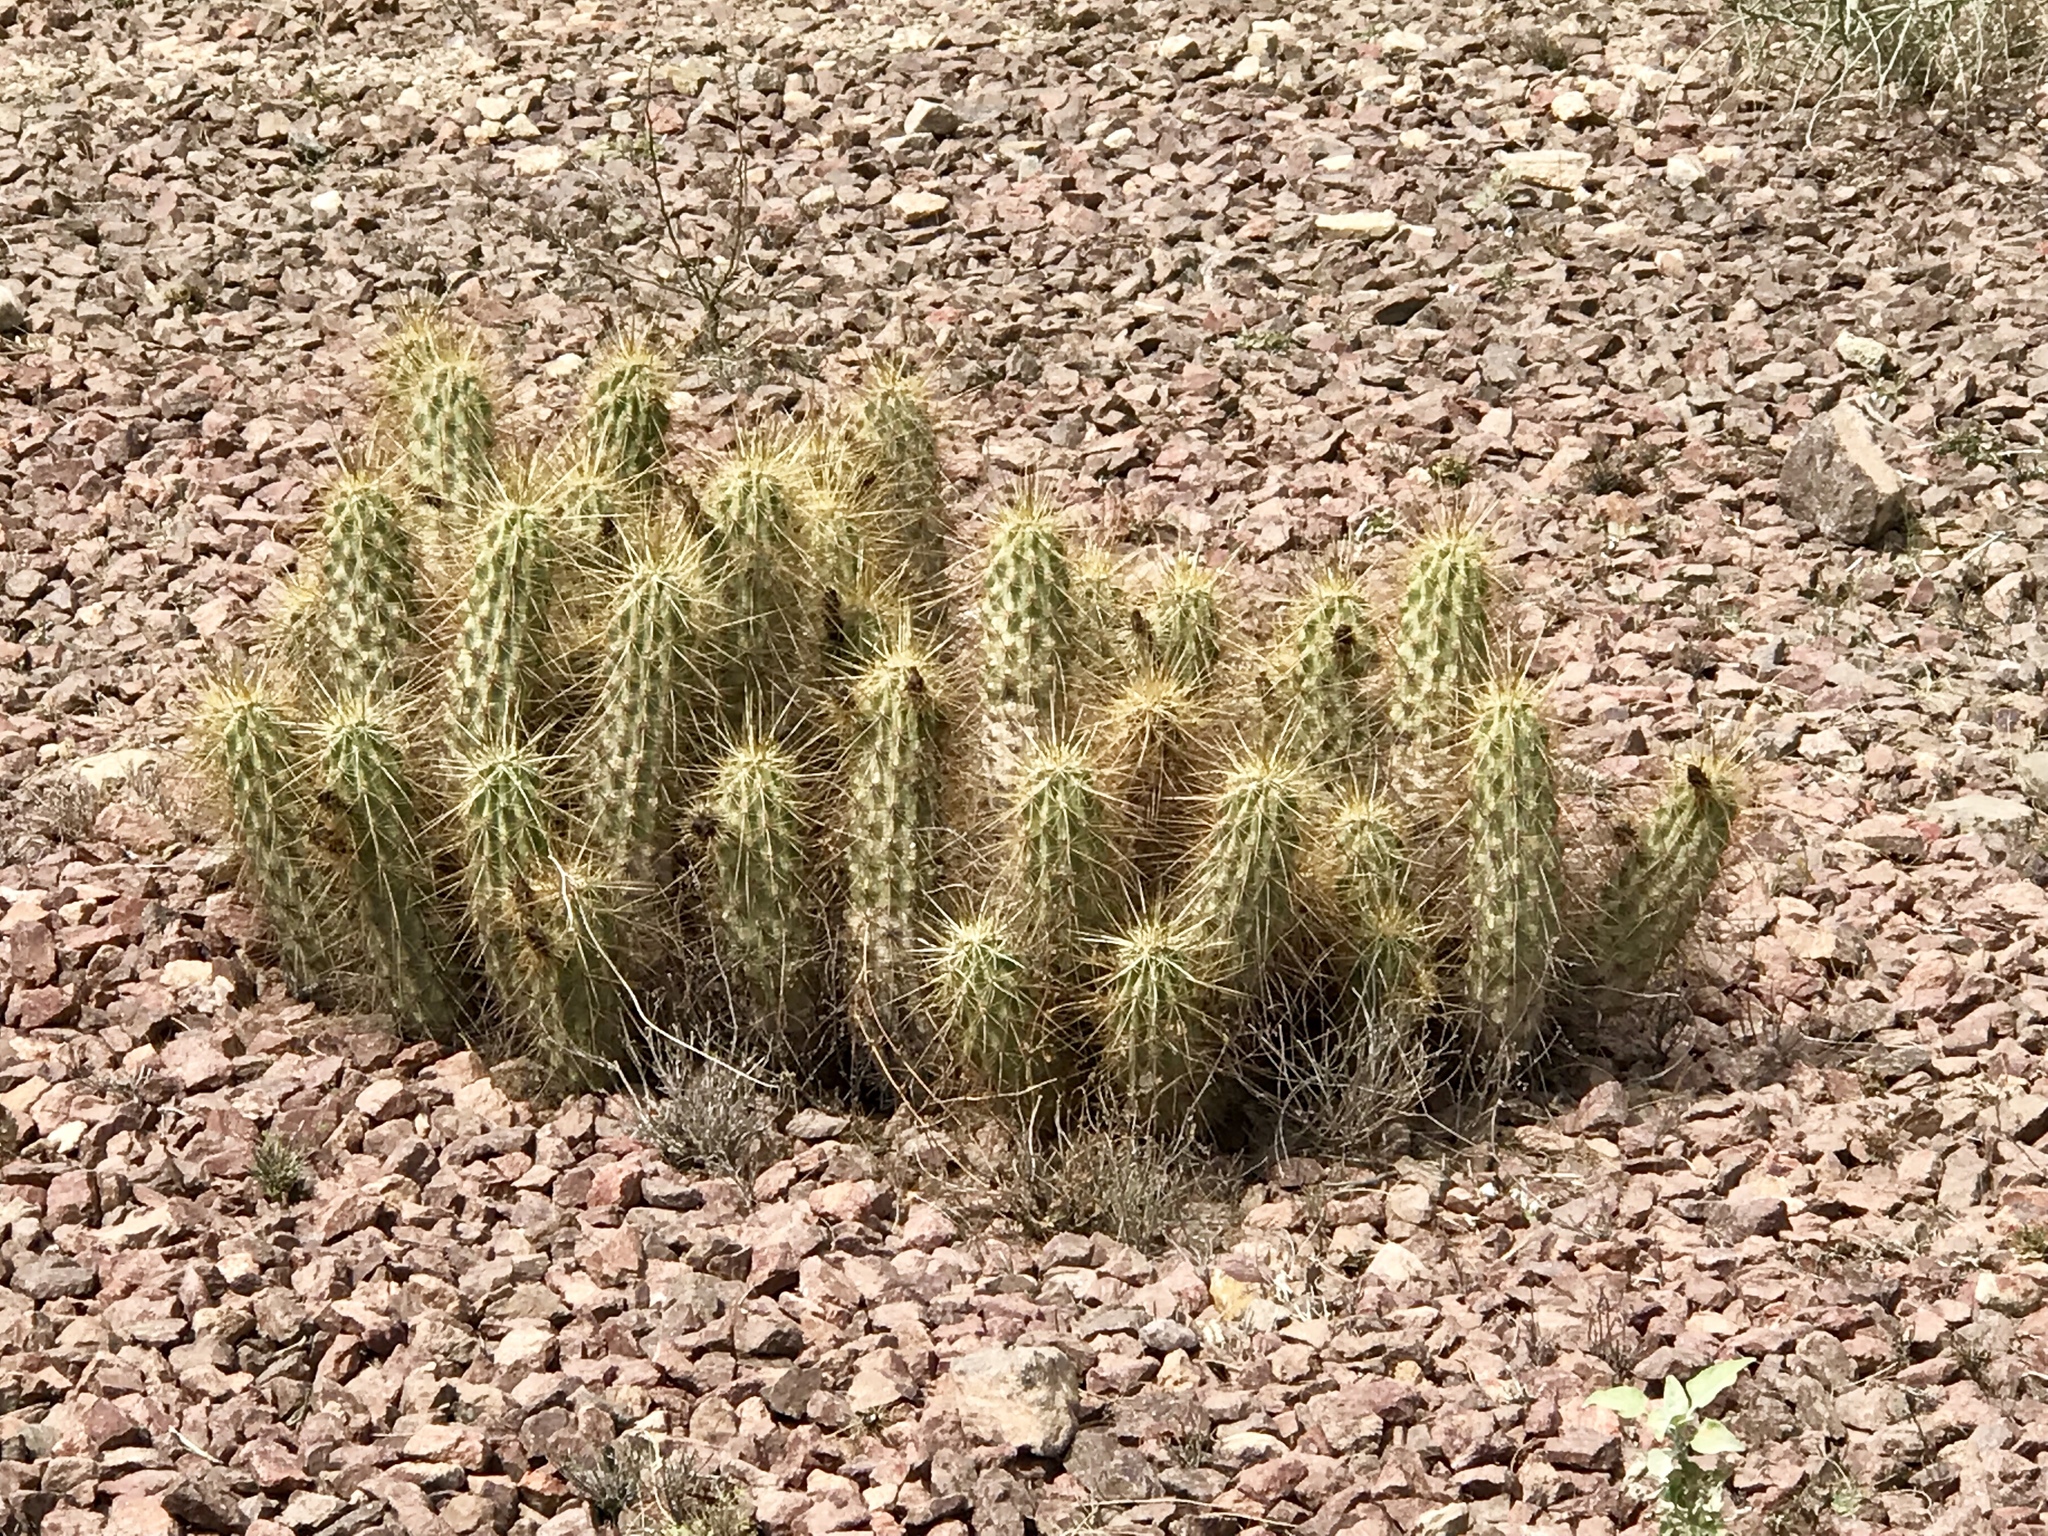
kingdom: Plantae
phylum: Tracheophyta
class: Magnoliopsida
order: Caryophyllales
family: Cactaceae
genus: Echinocereus
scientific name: Echinocereus nicholii
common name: Nichol's hedgehog cactus
